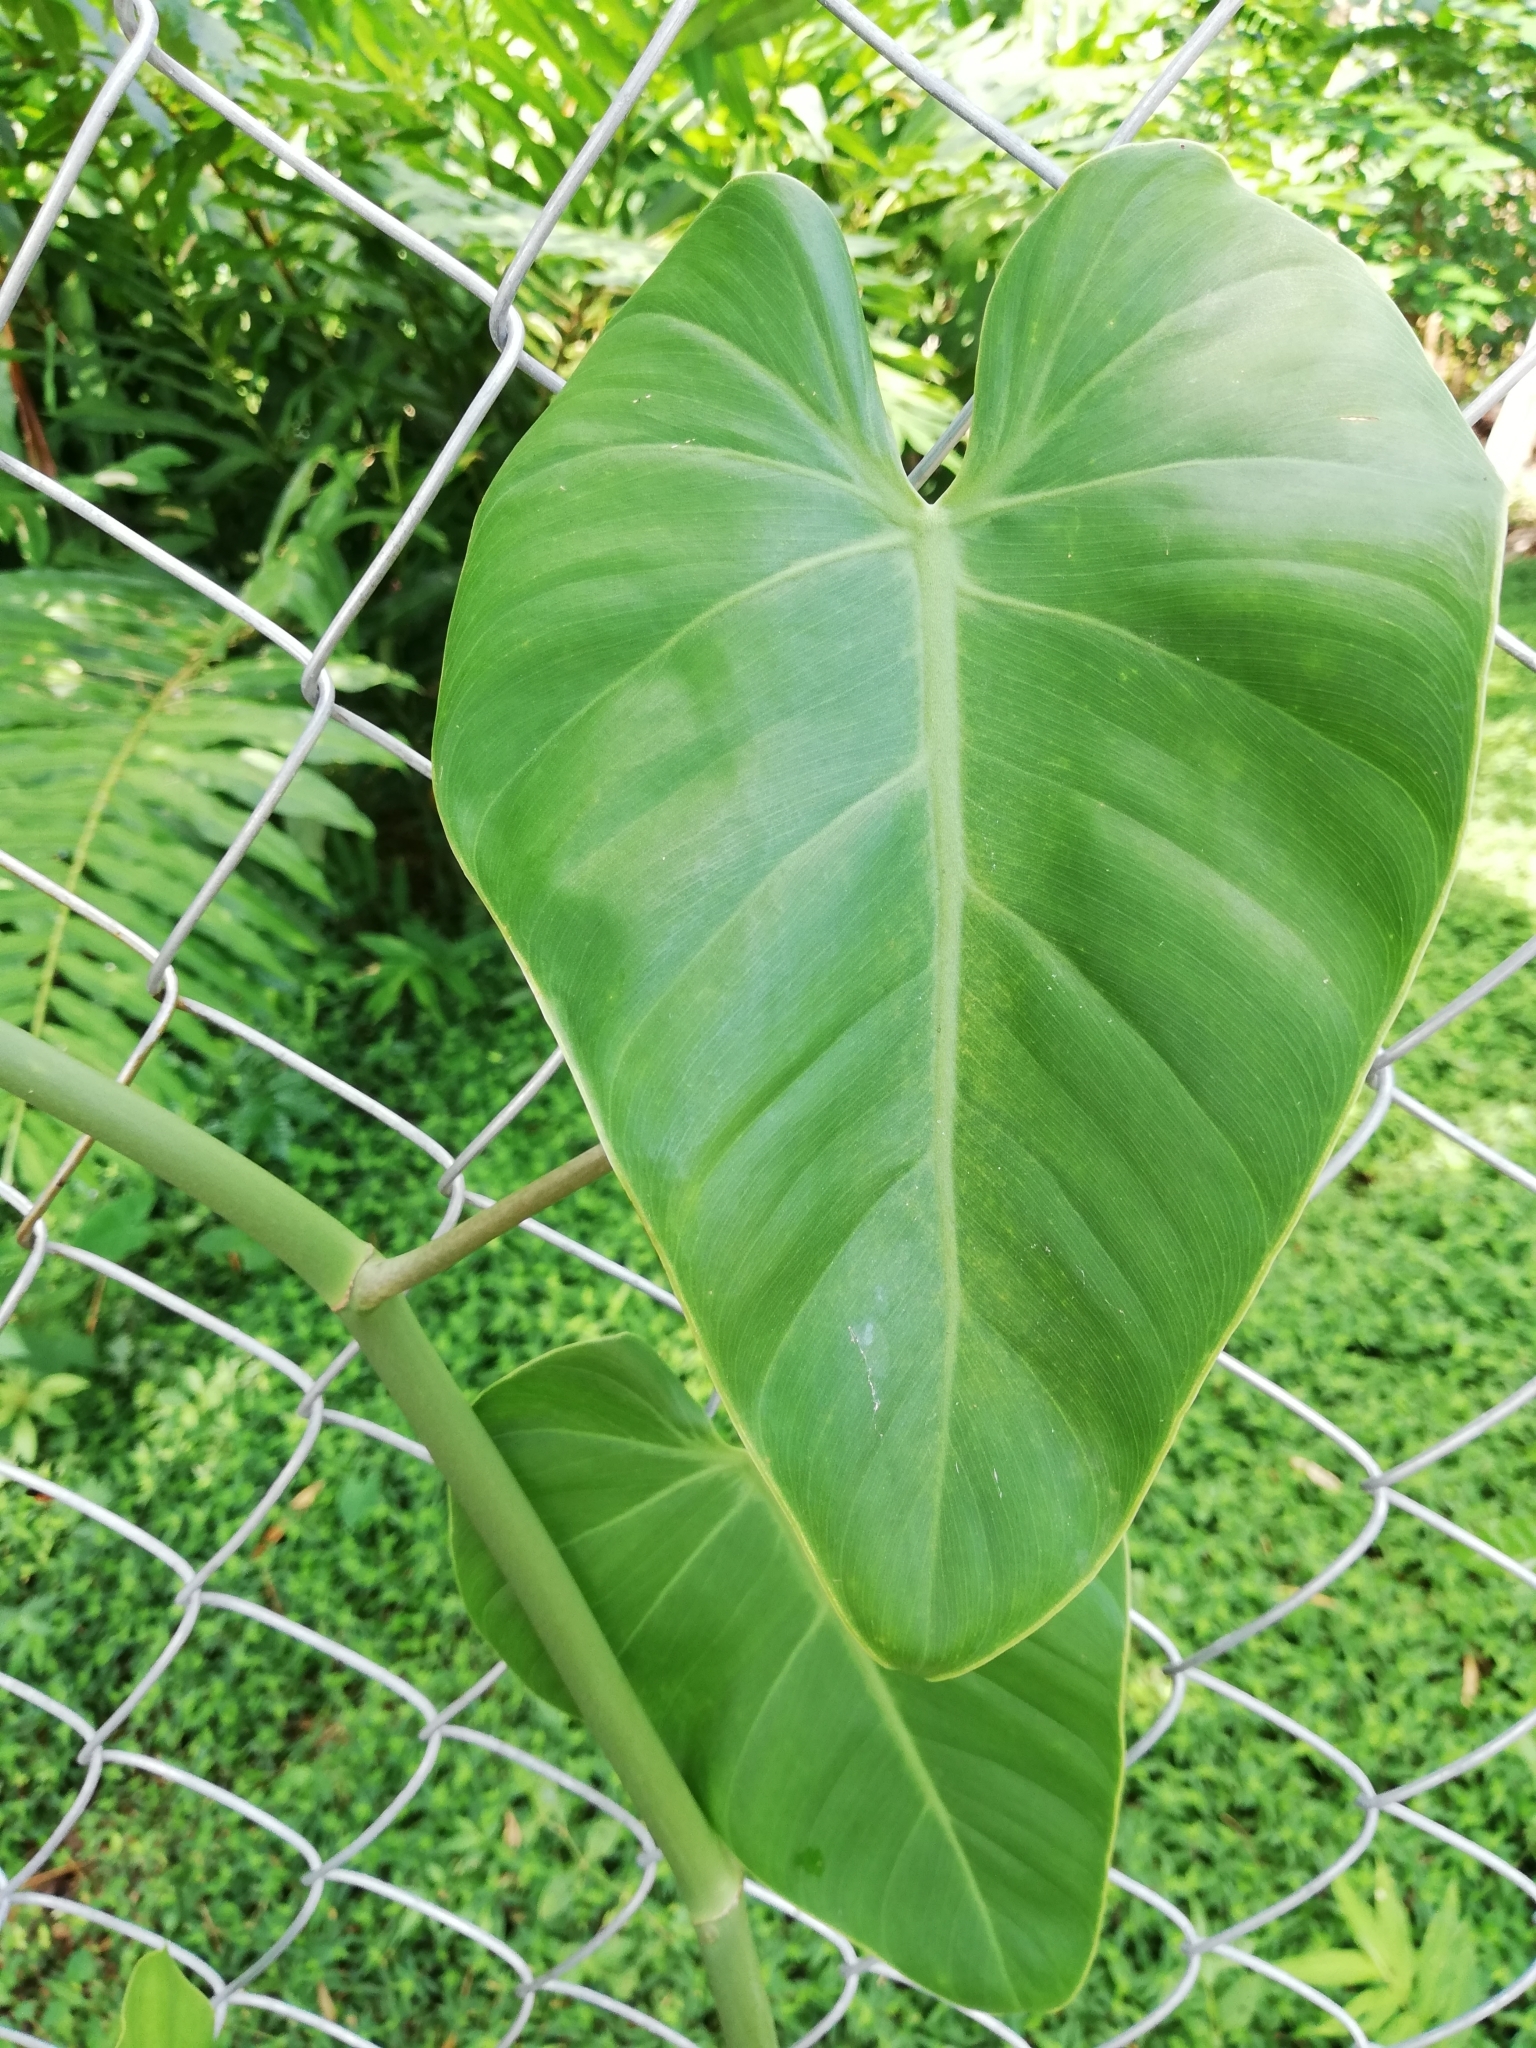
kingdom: Plantae
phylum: Tracheophyta
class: Liliopsida
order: Alismatales
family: Araceae
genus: Philodendron
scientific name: Philodendron hederaceum
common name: Vilevine
